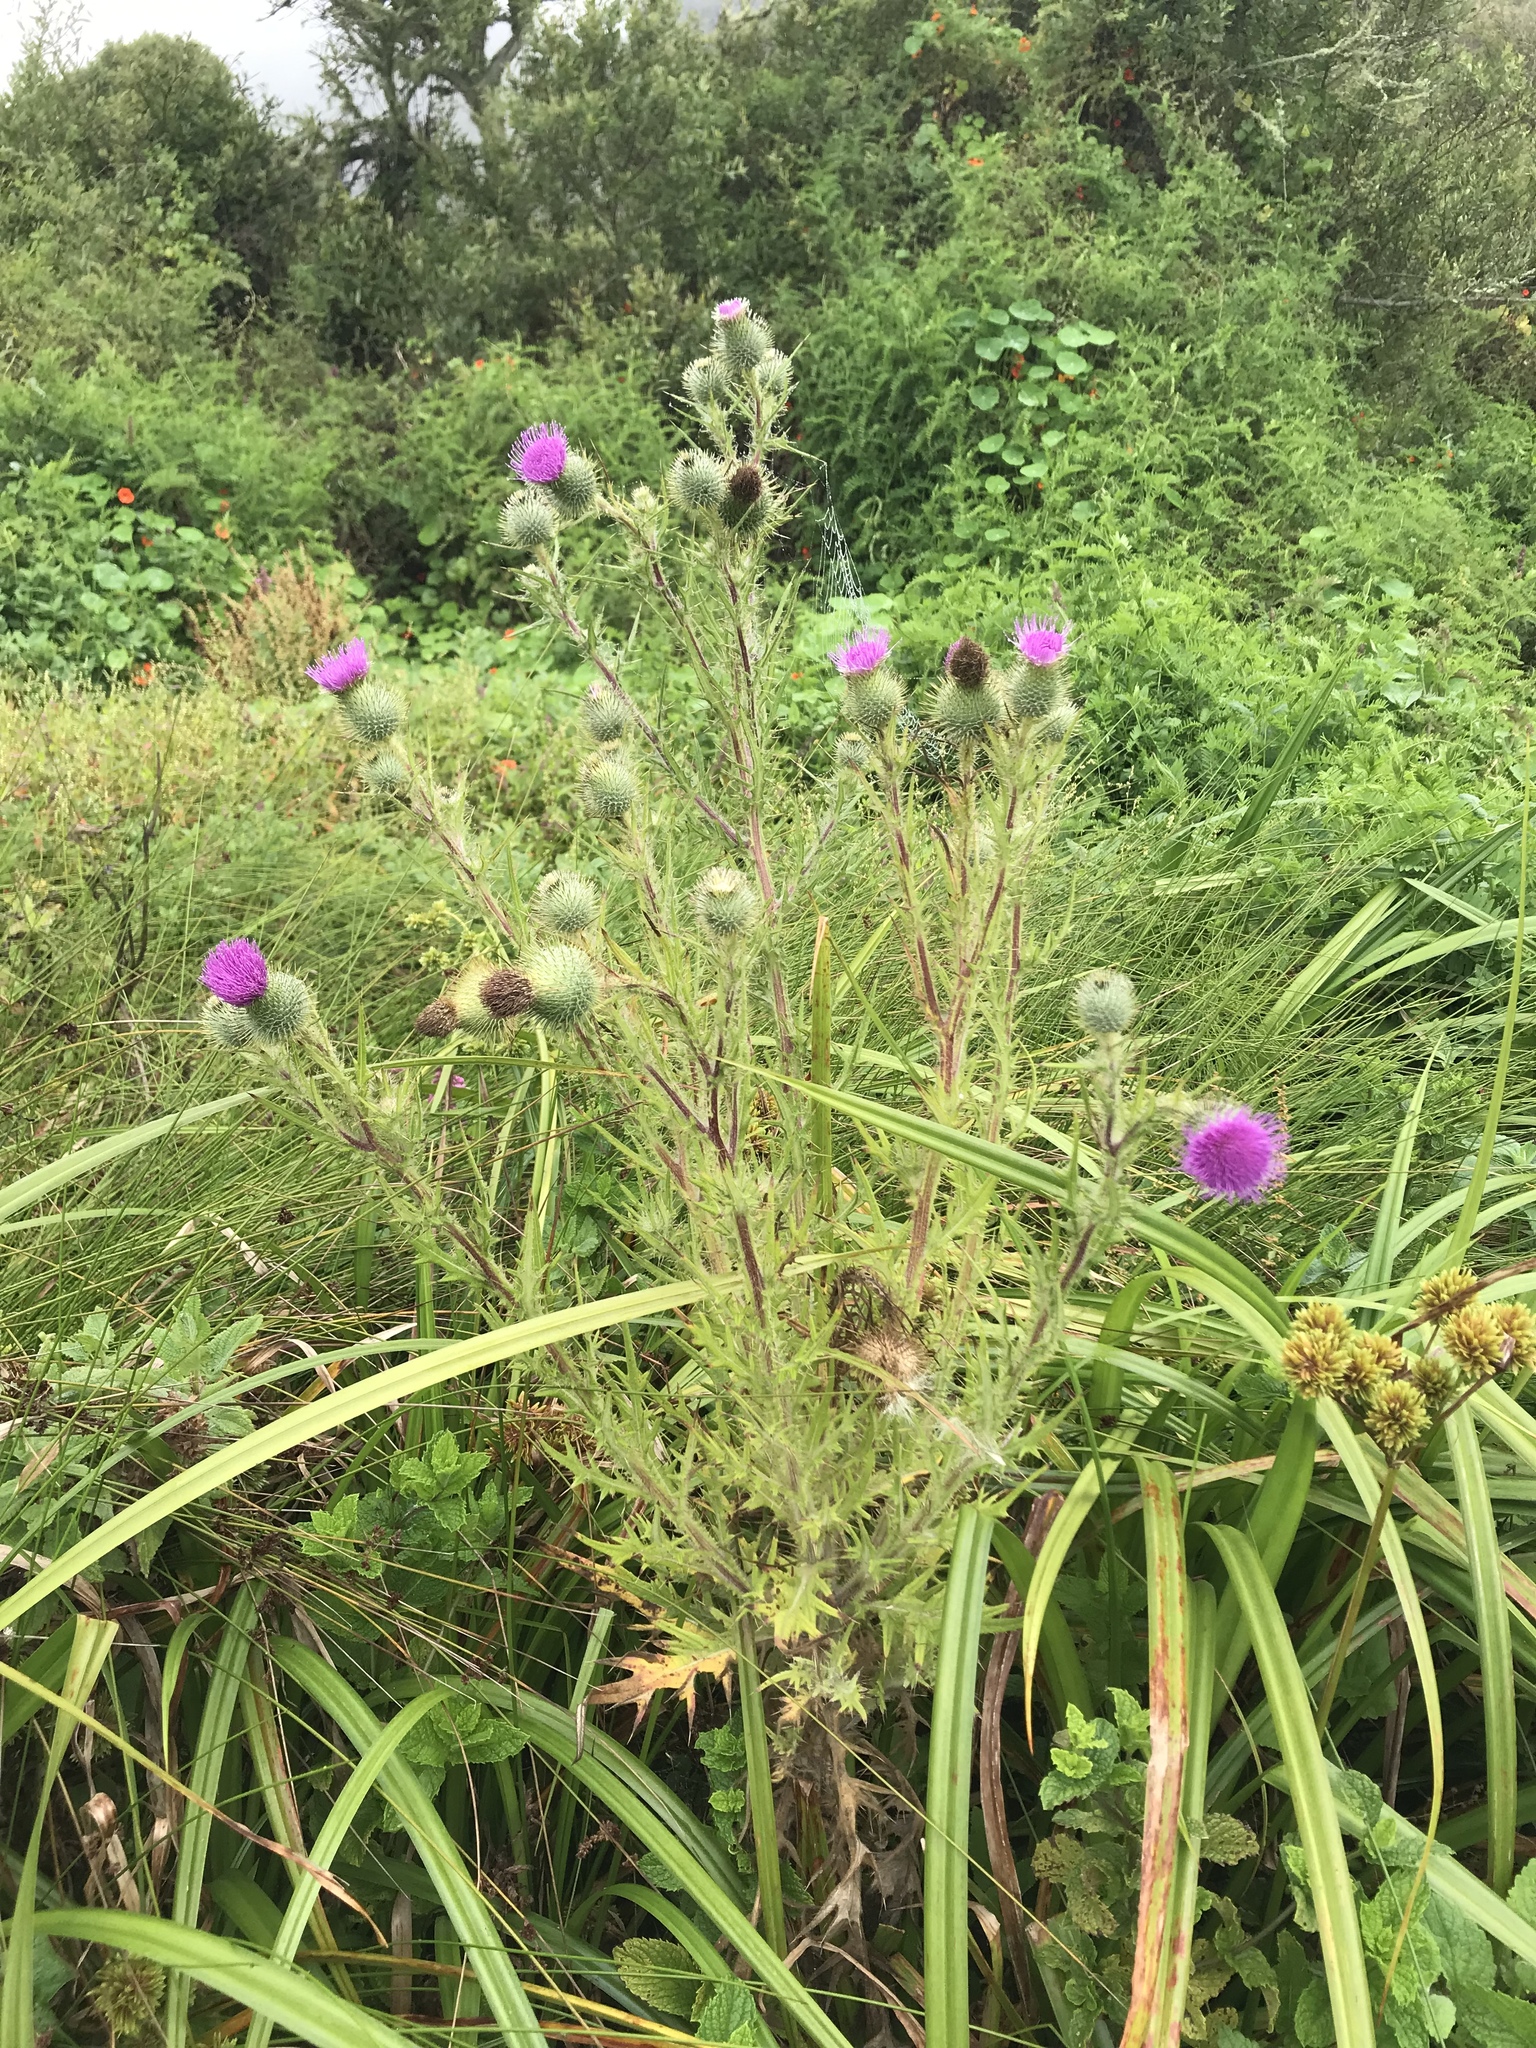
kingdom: Plantae
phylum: Tracheophyta
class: Magnoliopsida
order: Asterales
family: Asteraceae
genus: Cirsium
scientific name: Cirsium vulgare
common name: Bull thistle
